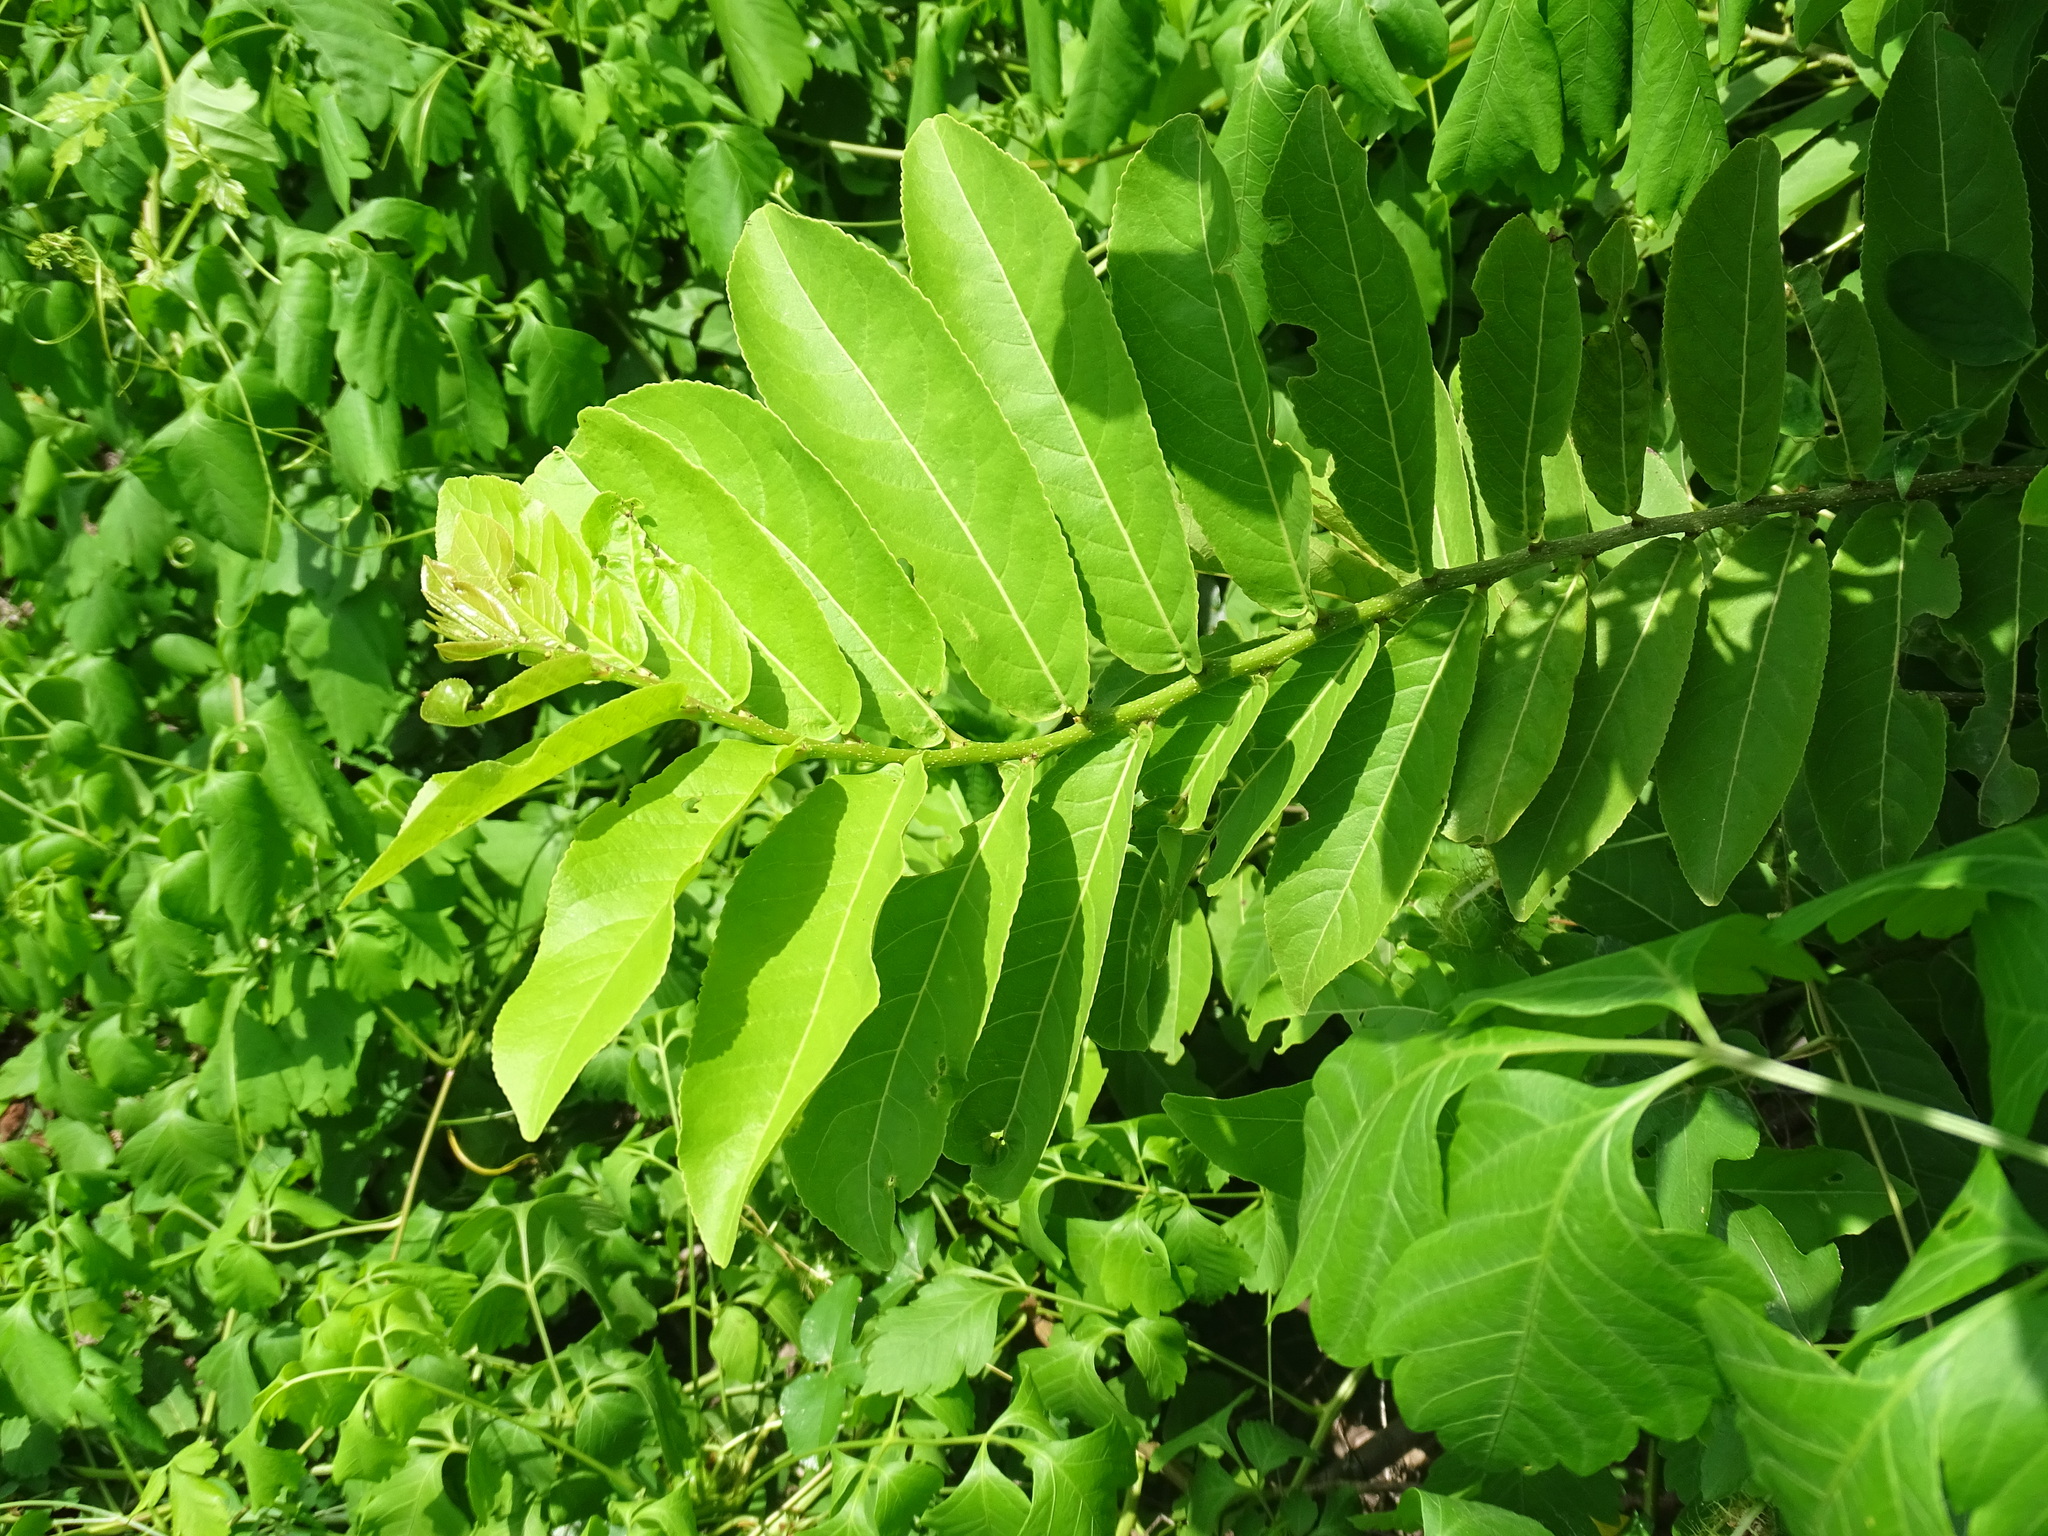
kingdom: Plantae
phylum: Tracheophyta
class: Magnoliopsida
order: Malpighiales
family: Salicaceae
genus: Casearia
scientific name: Casearia corymbosa
